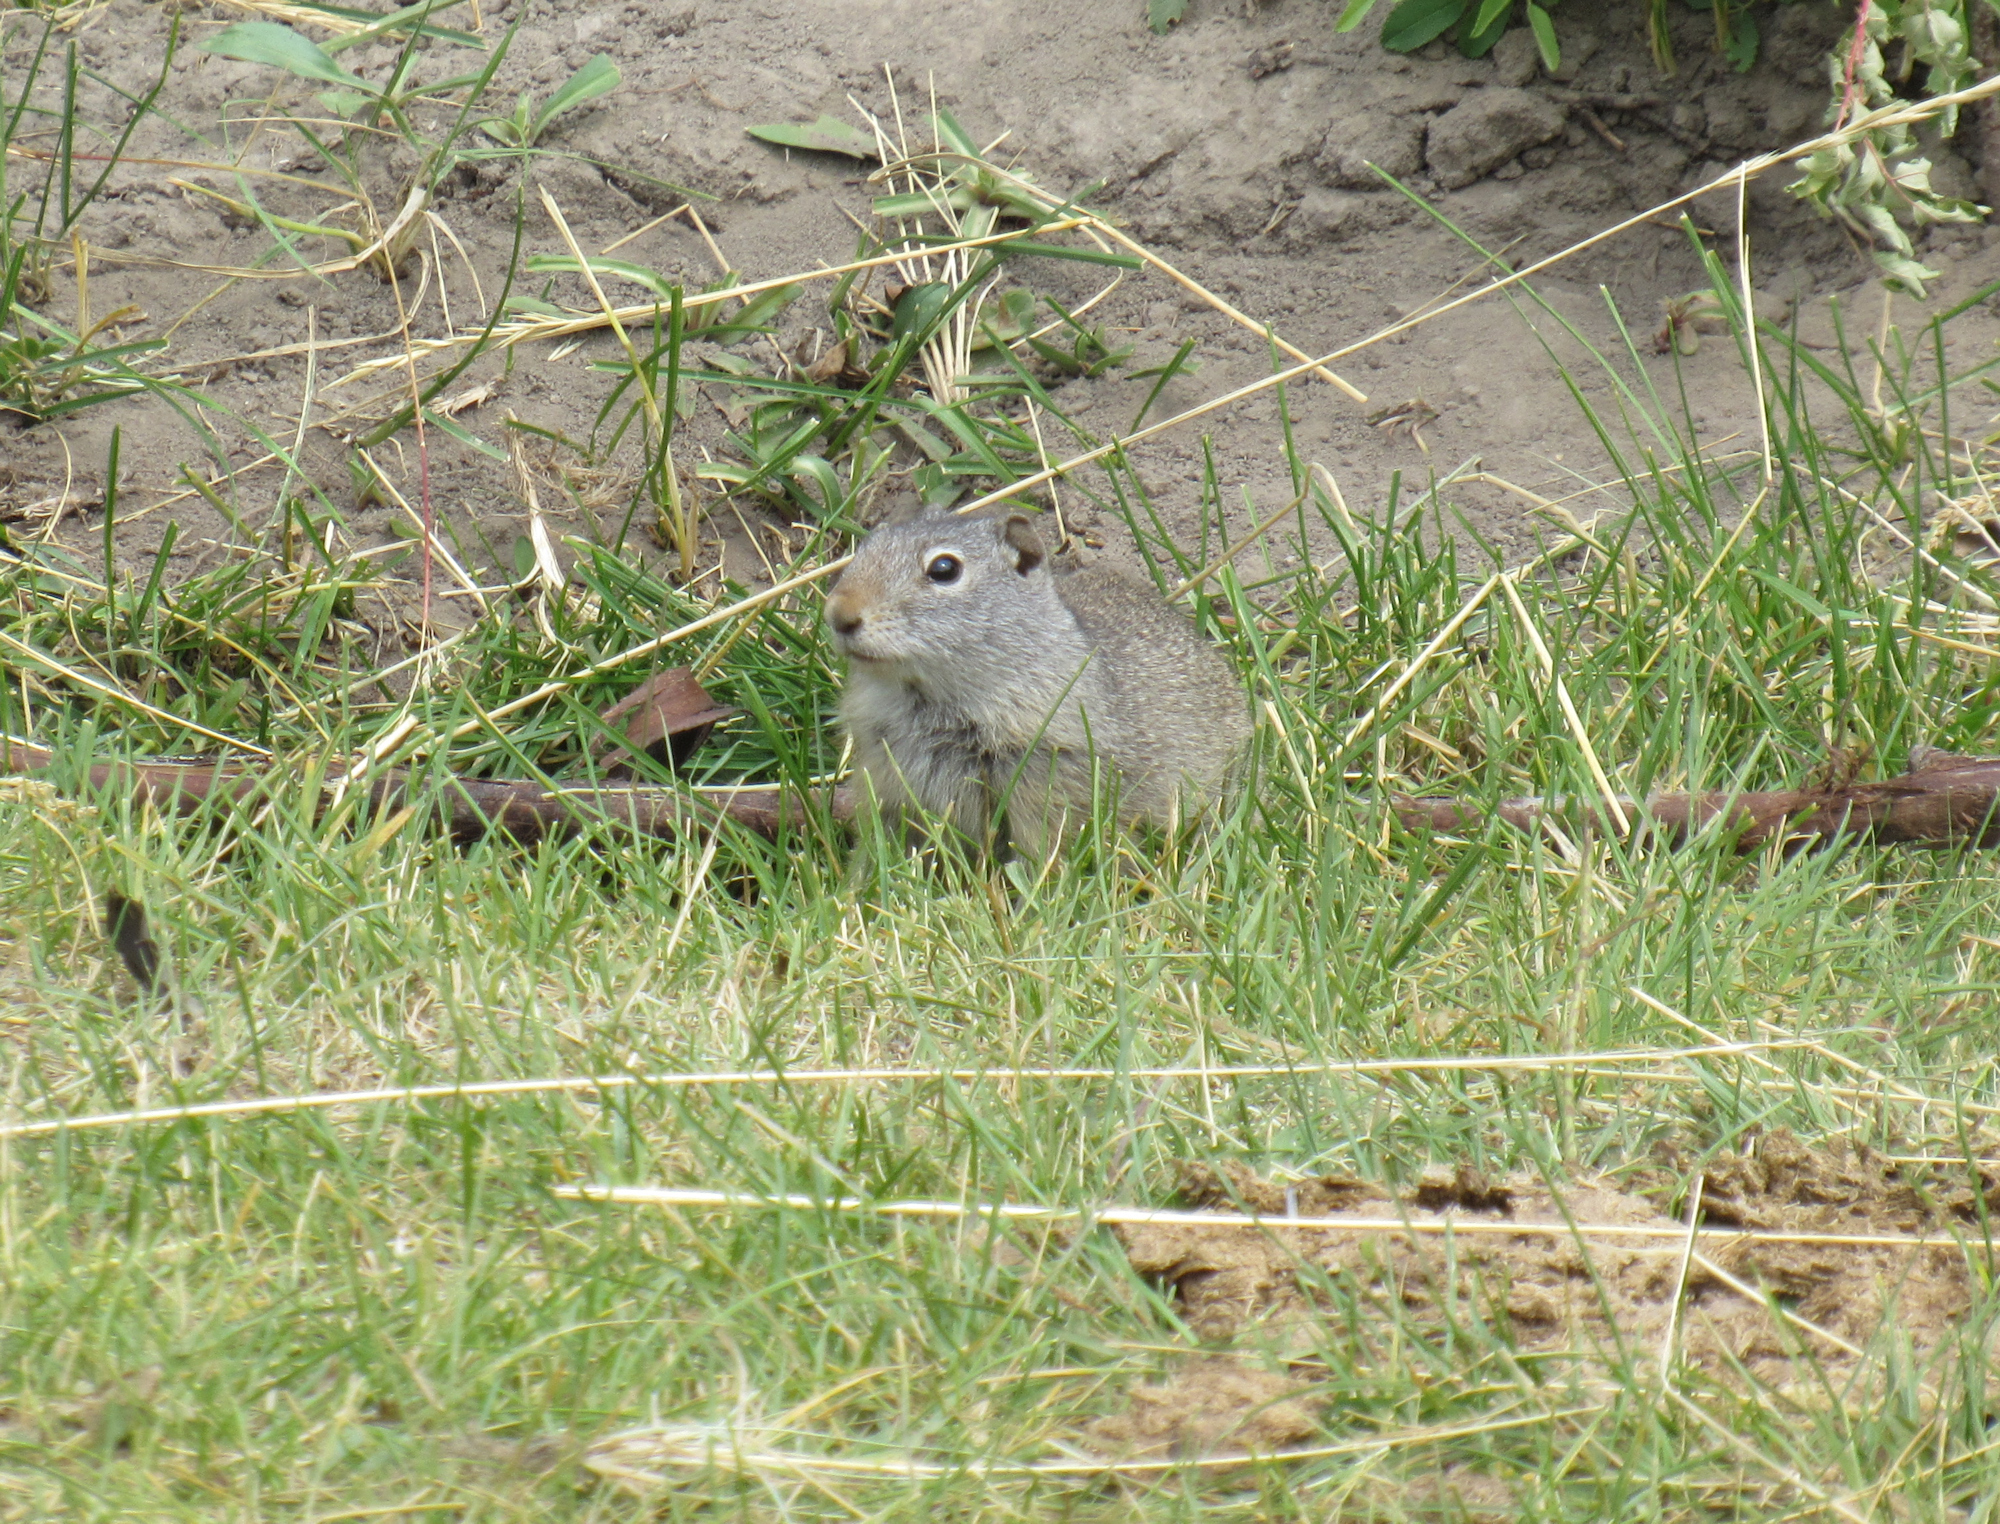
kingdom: Animalia
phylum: Chordata
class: Mammalia
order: Rodentia
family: Sciuridae
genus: Urocitellus
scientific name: Urocitellus armatus
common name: Uinta ground squirrel
